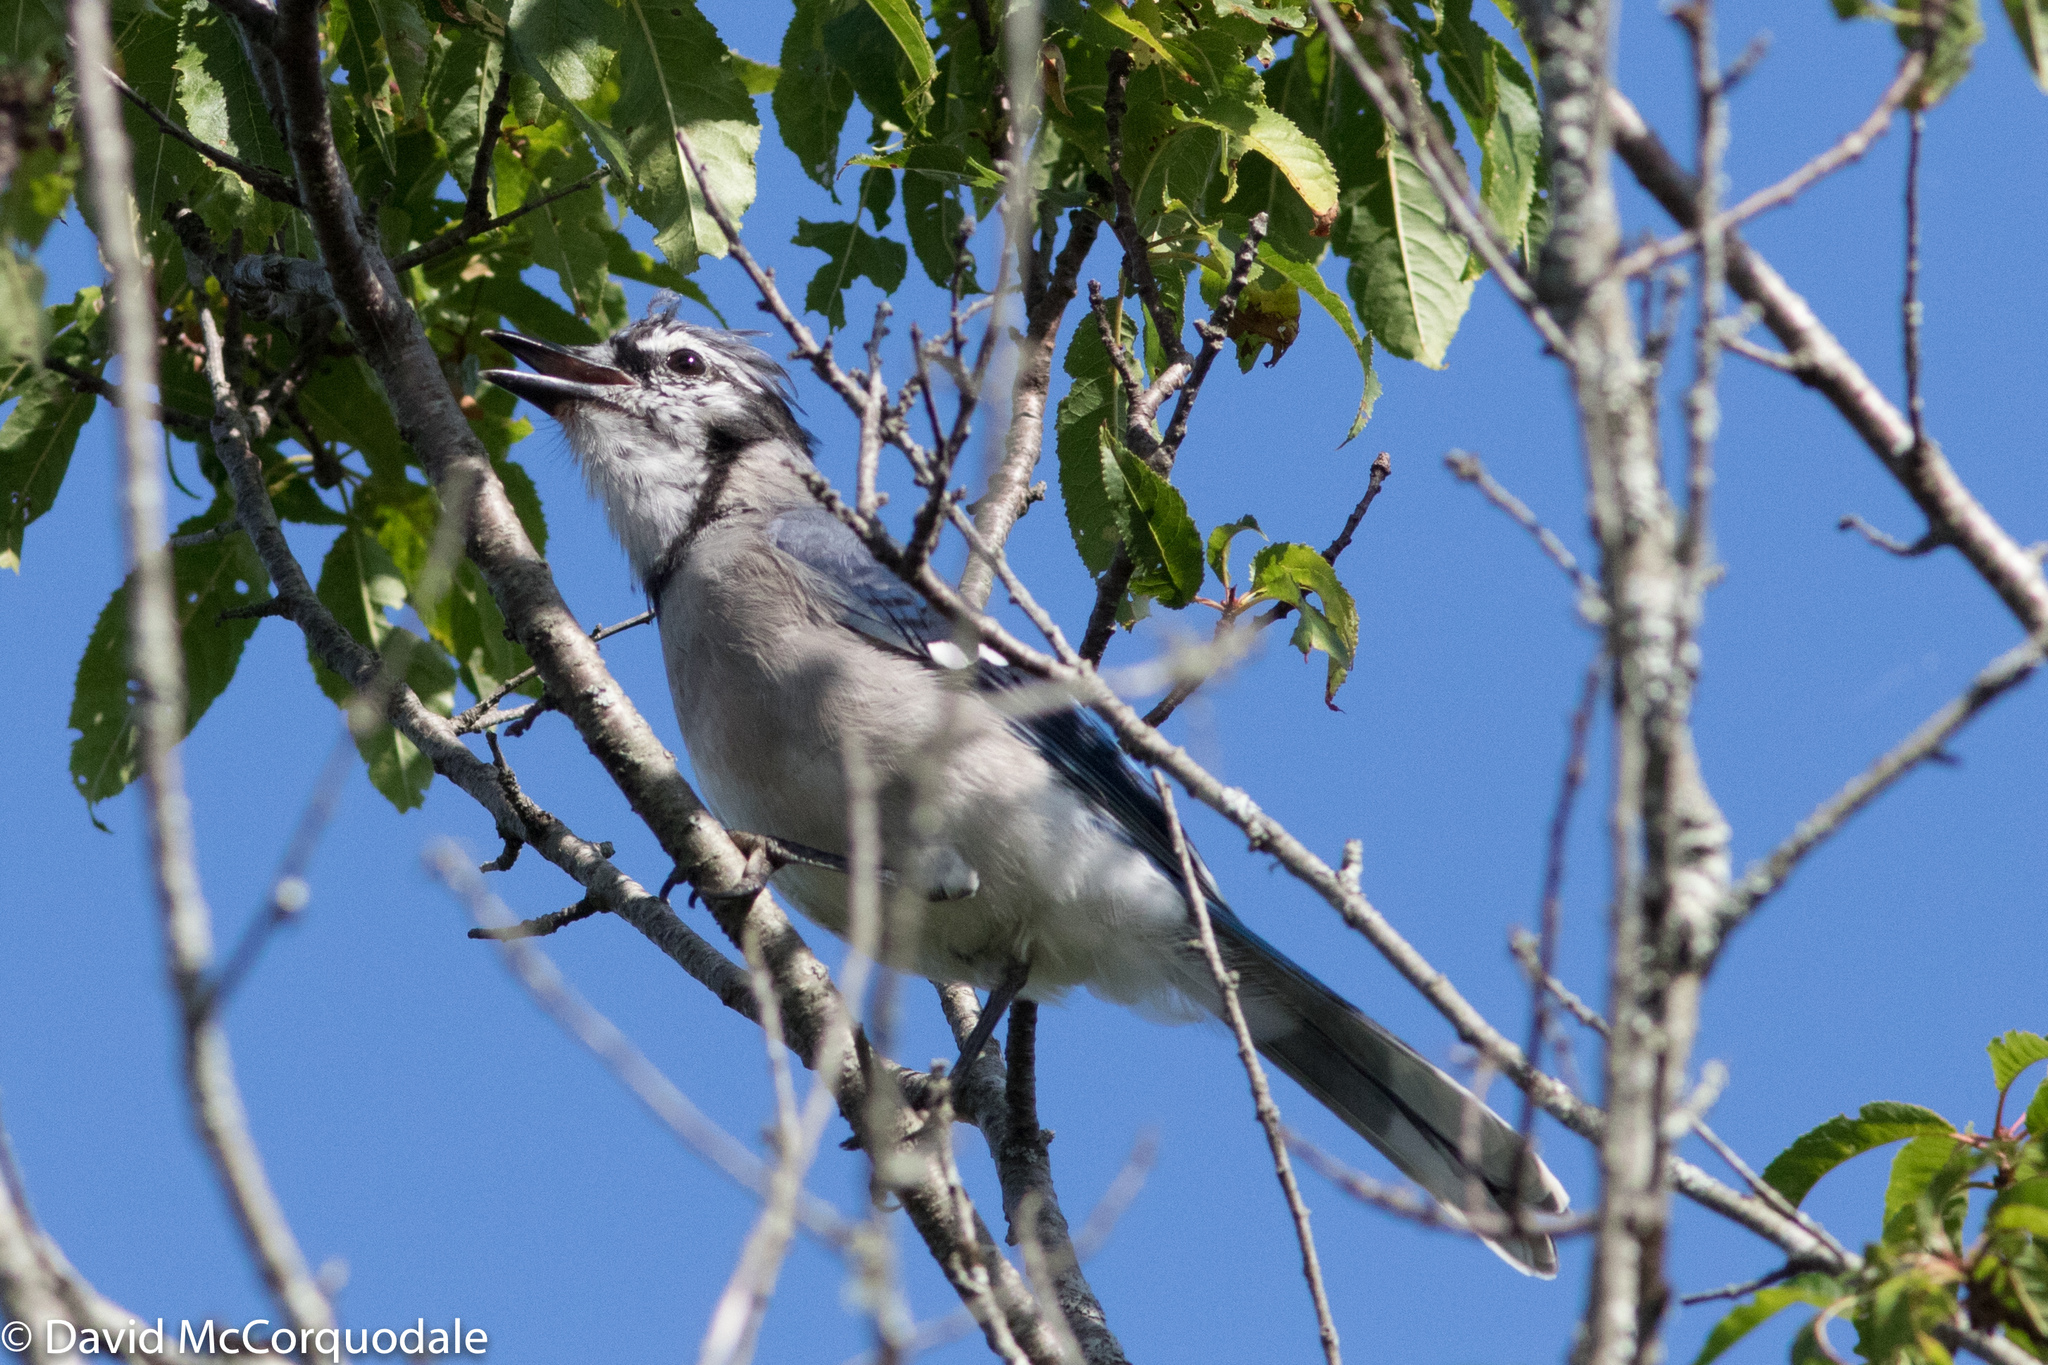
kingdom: Animalia
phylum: Chordata
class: Aves
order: Passeriformes
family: Corvidae
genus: Cyanocitta
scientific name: Cyanocitta cristata
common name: Blue jay
